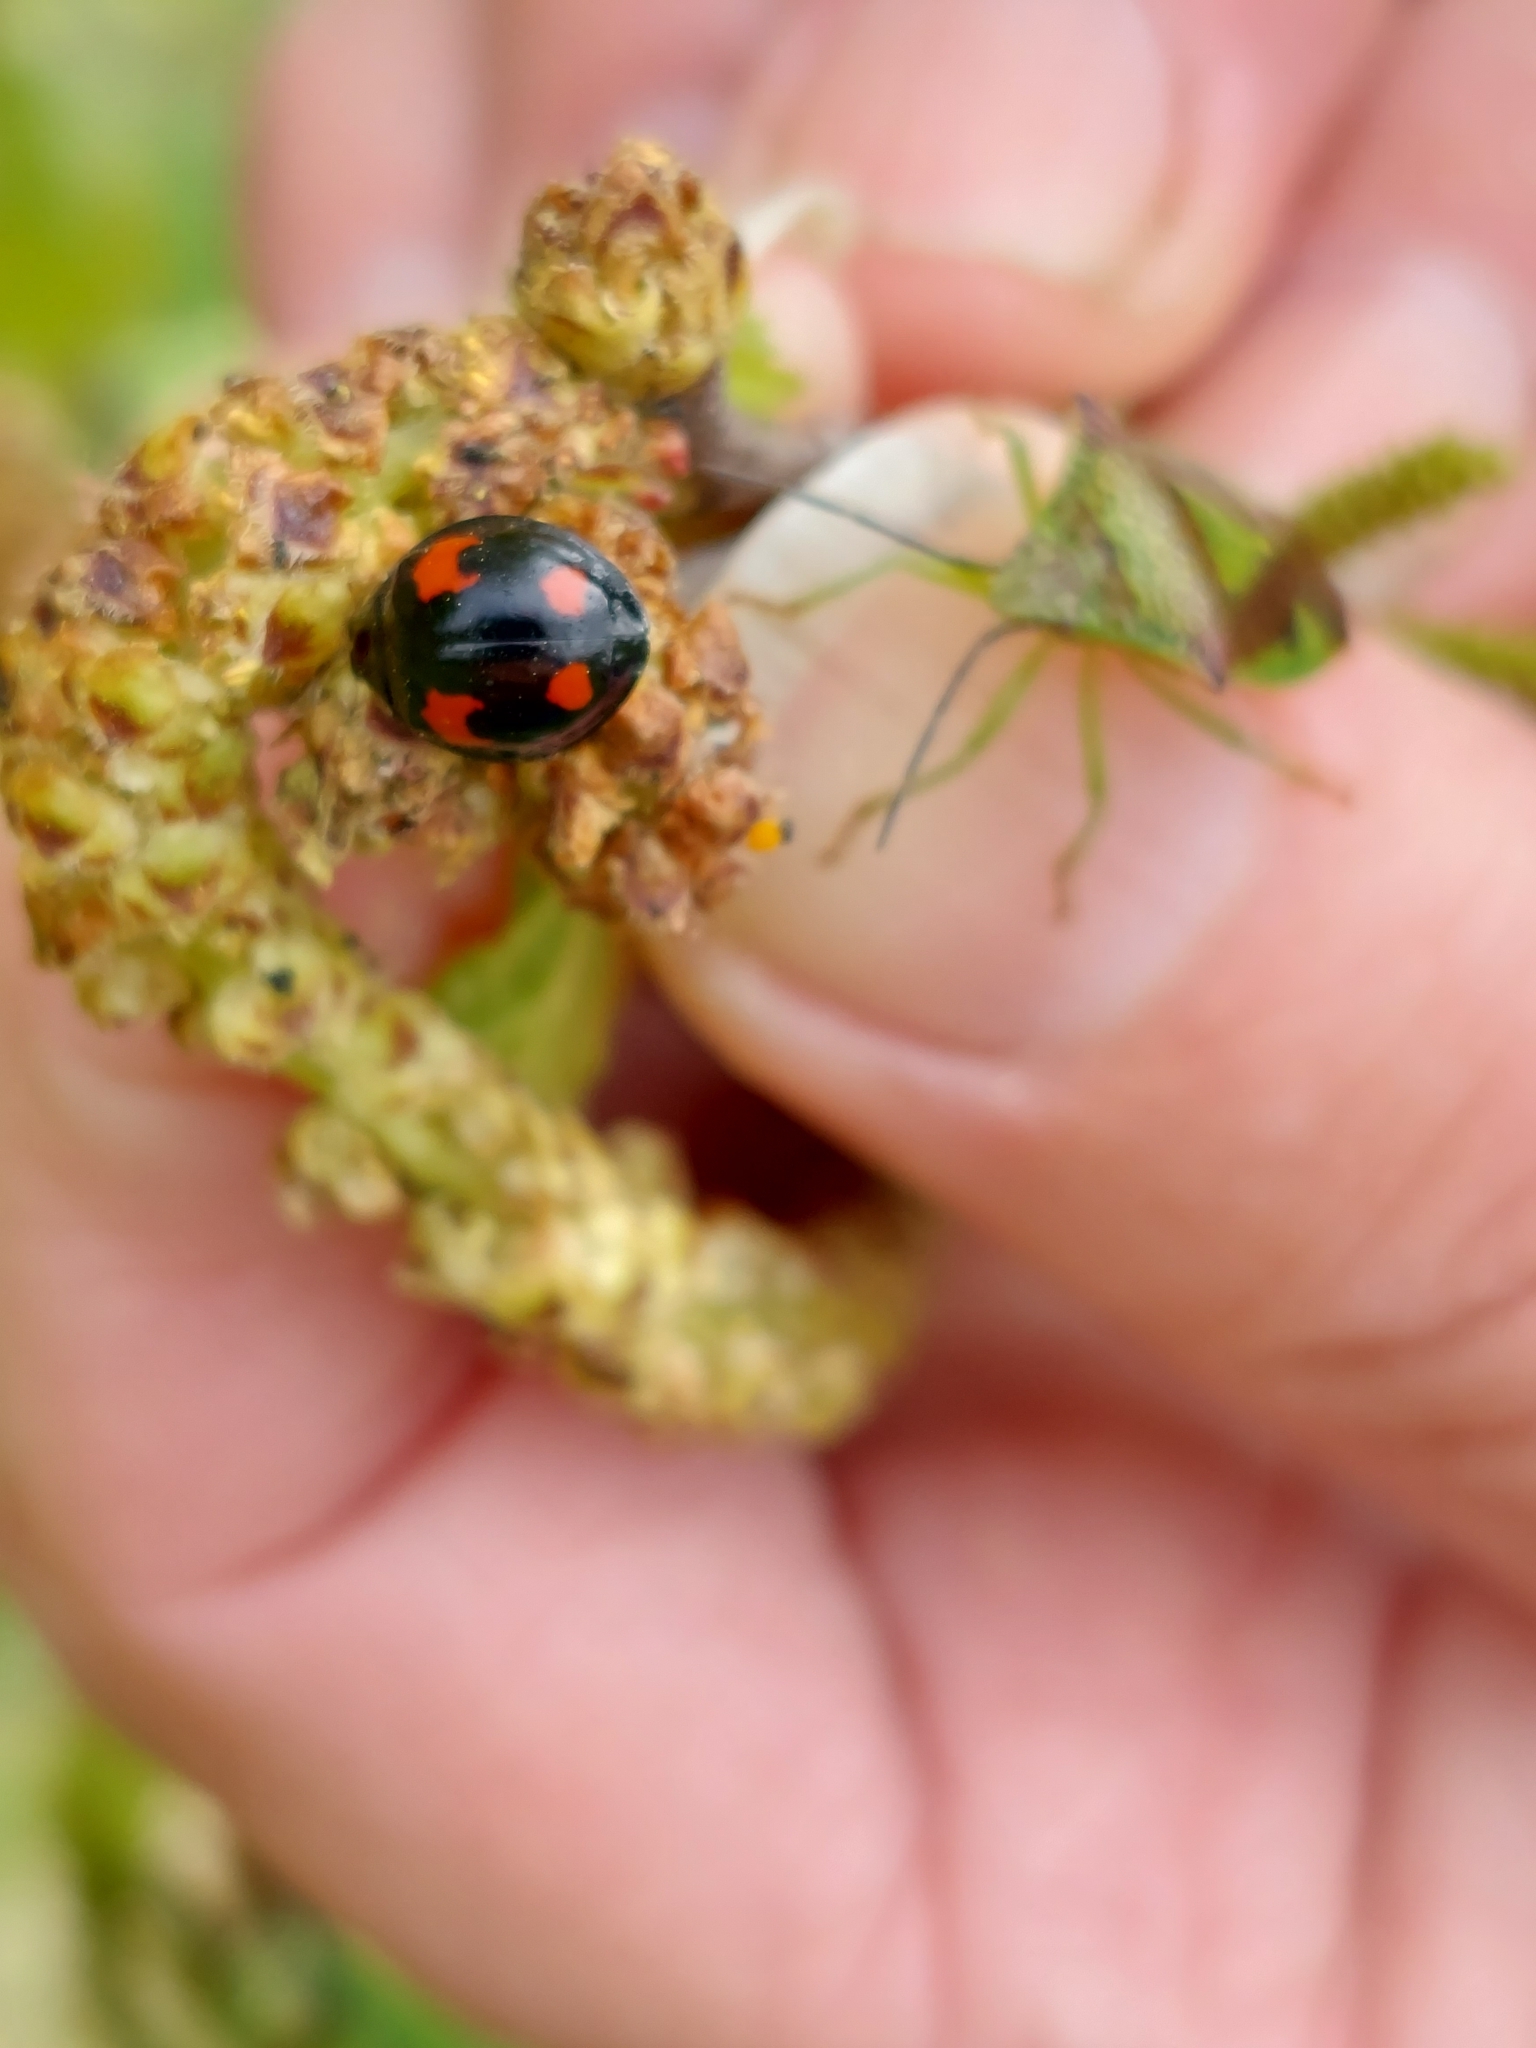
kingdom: Animalia
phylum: Arthropoda
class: Insecta
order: Coleoptera
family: Coccinellidae
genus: Harmonia
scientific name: Harmonia axyridis
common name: Harlequin ladybird
